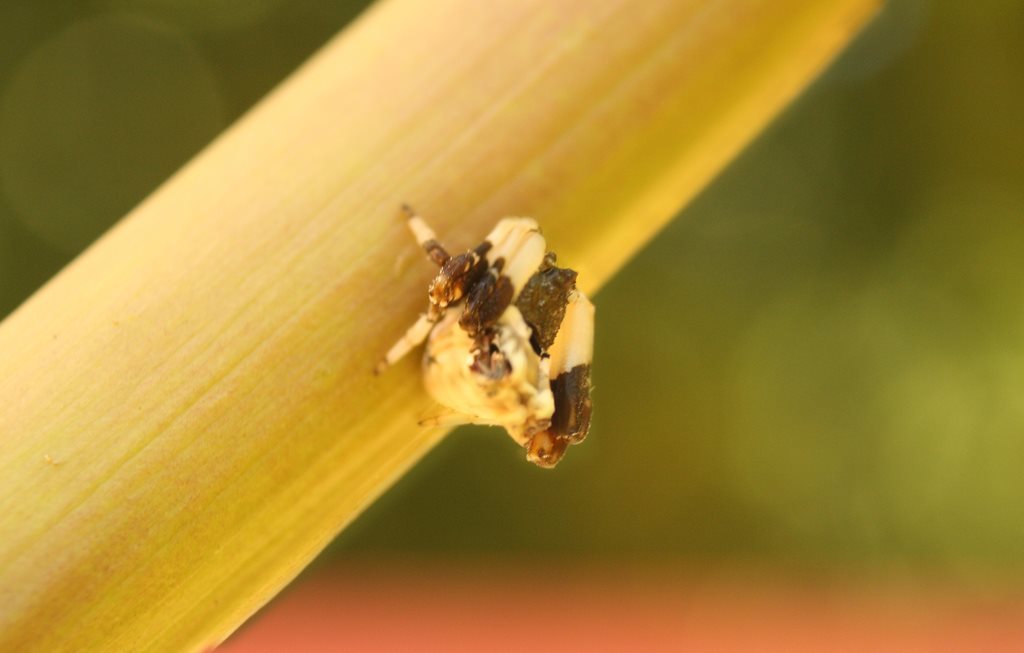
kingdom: Animalia
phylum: Arthropoda
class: Arachnida
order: Araneae
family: Araneidae
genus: Celaenia
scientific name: Celaenia excavata
